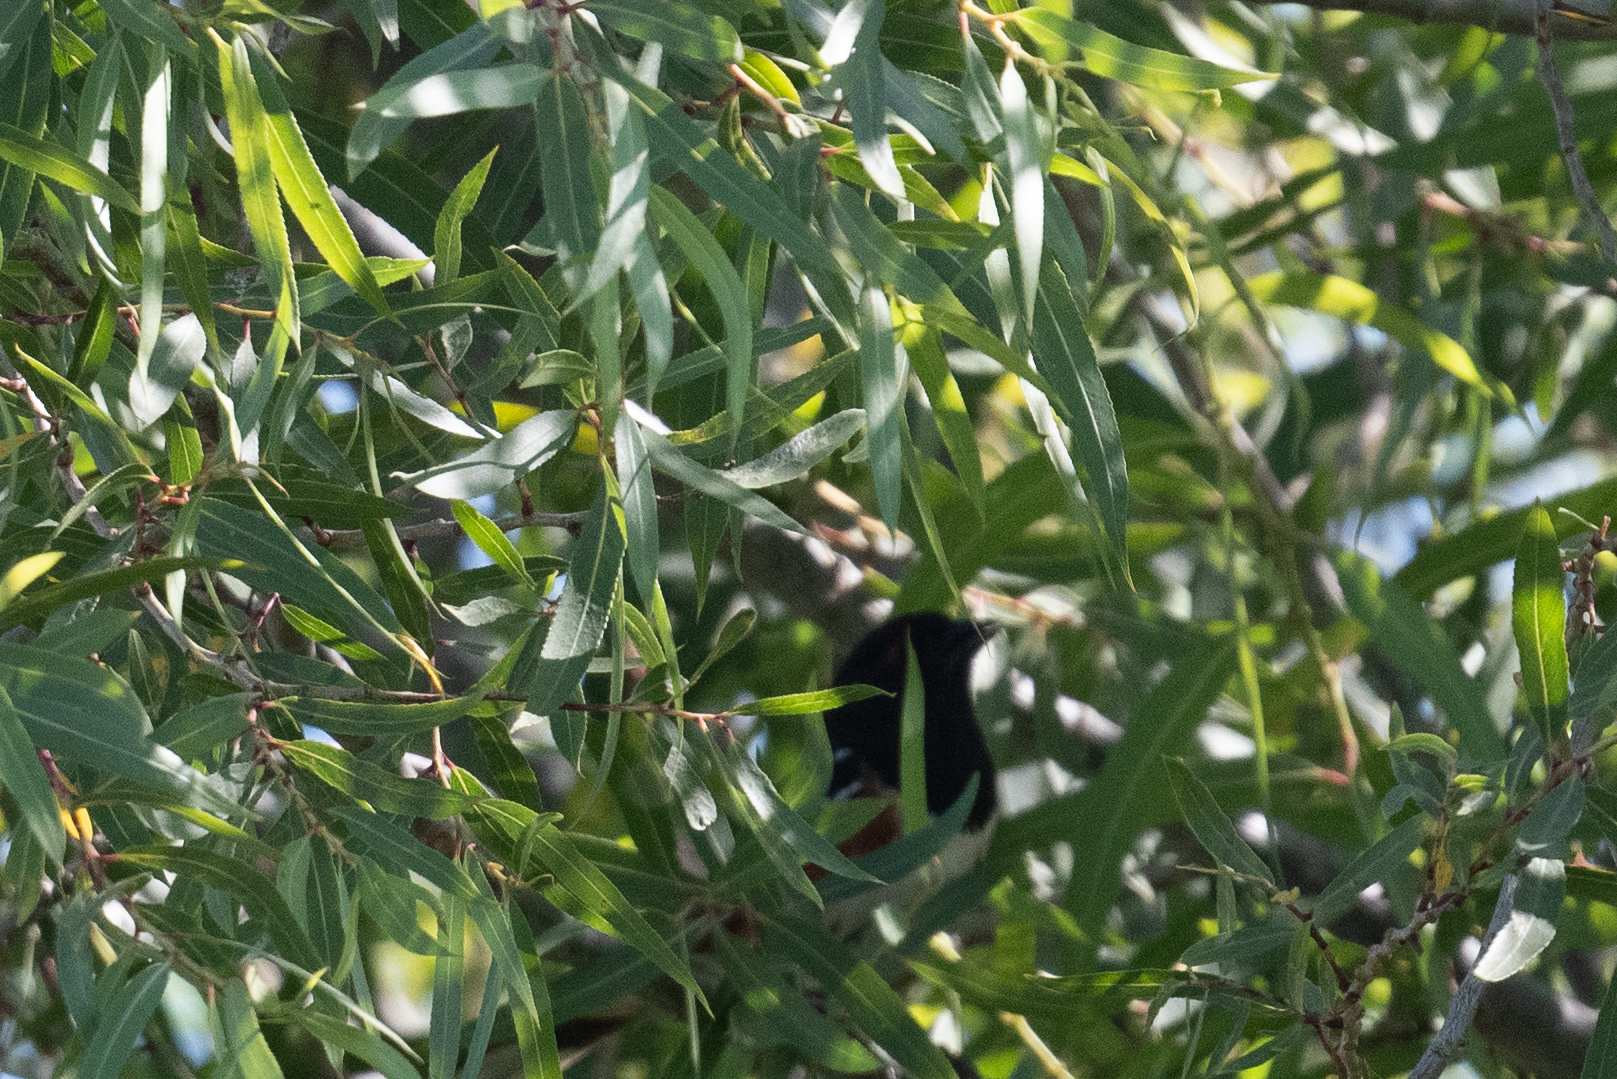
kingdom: Animalia
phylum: Chordata
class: Aves
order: Passeriformes
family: Passerellidae
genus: Pipilo
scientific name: Pipilo maculatus
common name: Spotted towhee
